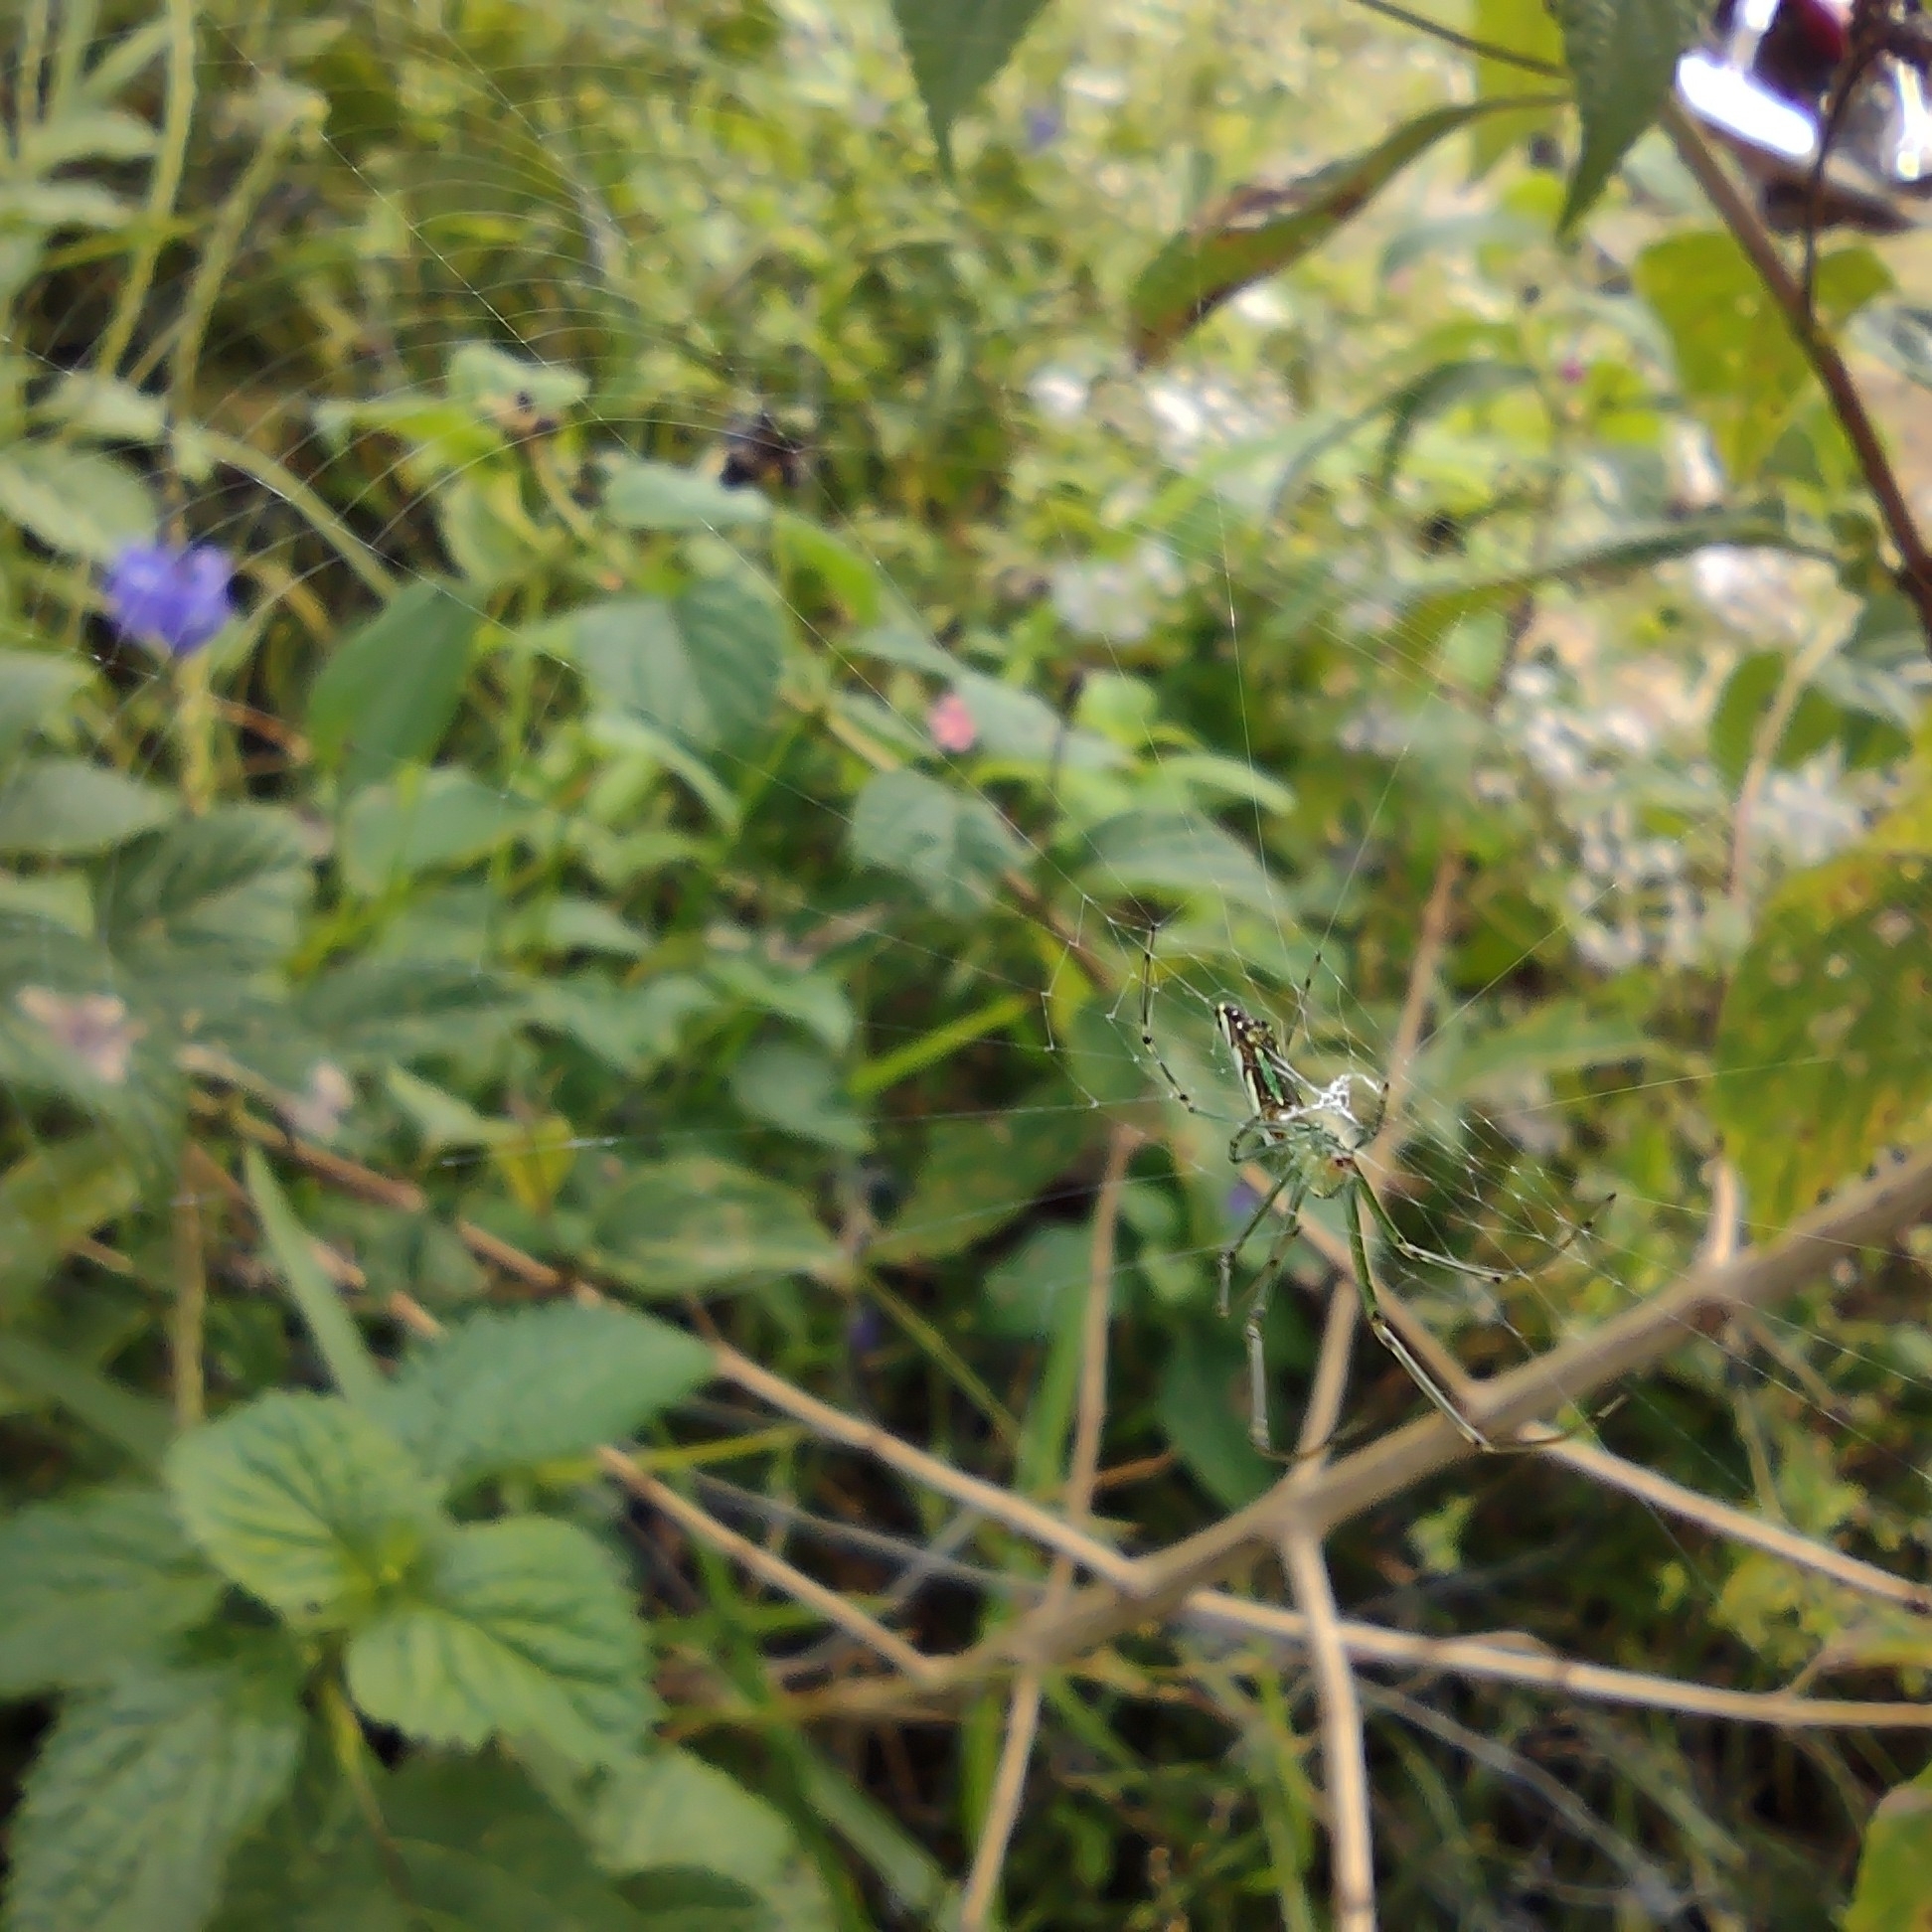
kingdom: Animalia
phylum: Arthropoda
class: Arachnida
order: Araneae
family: Tetragnathidae
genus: Leucauge
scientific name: Leucauge decorata
